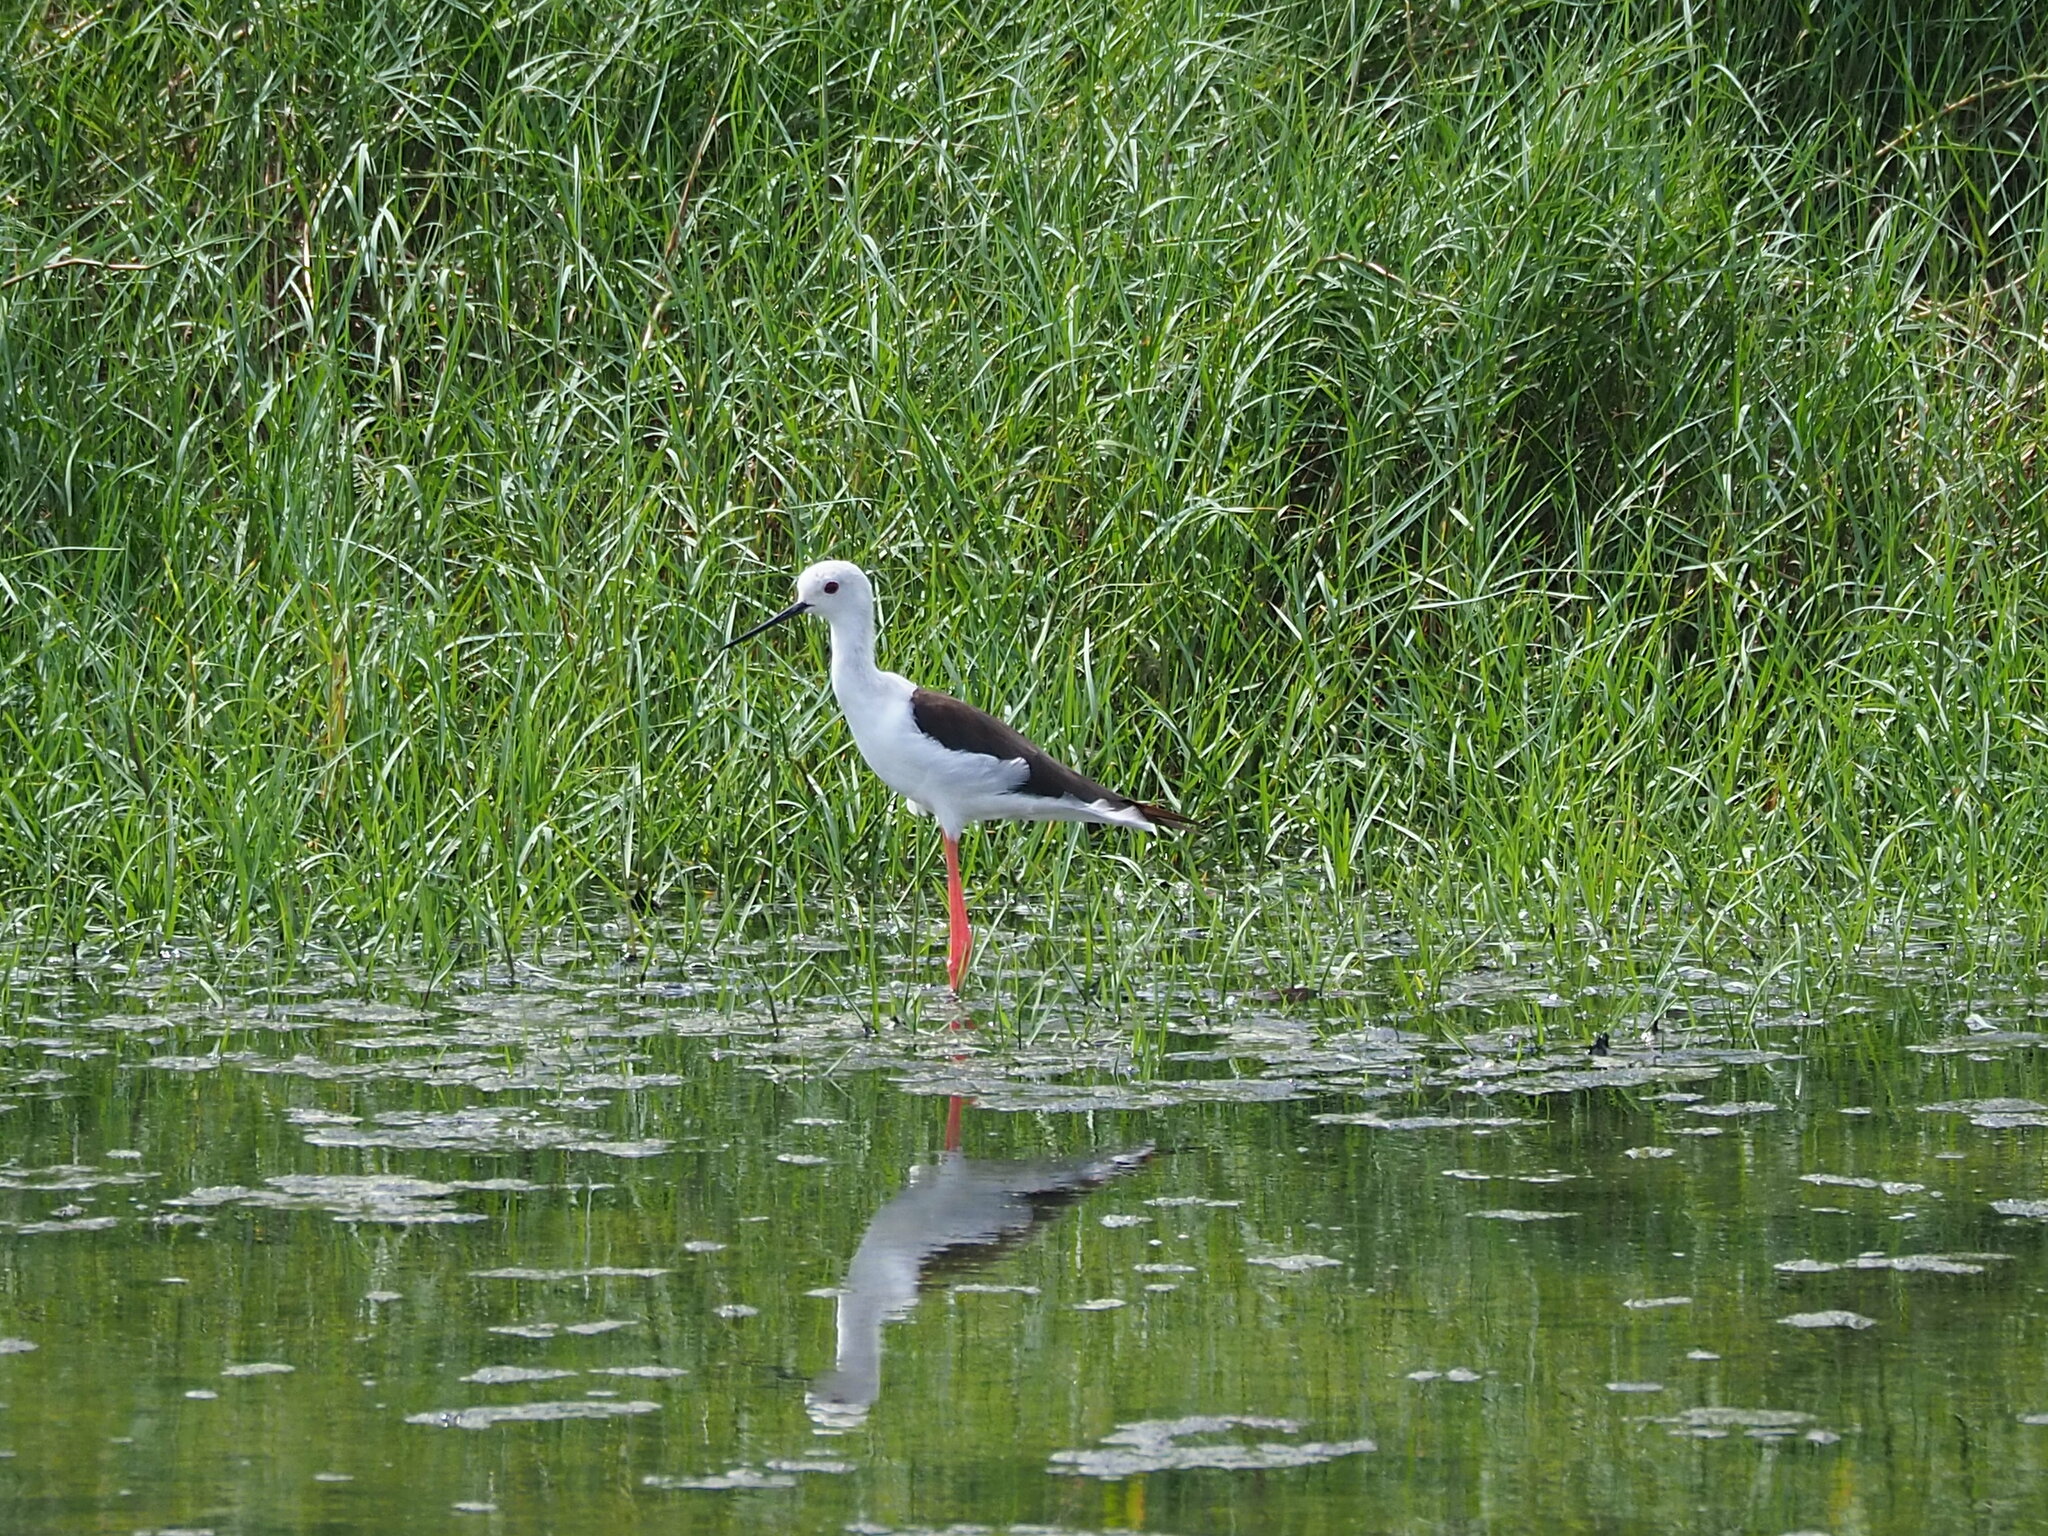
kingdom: Animalia
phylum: Chordata
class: Aves
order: Charadriiformes
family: Recurvirostridae
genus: Himantopus
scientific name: Himantopus himantopus
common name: Black-winged stilt
